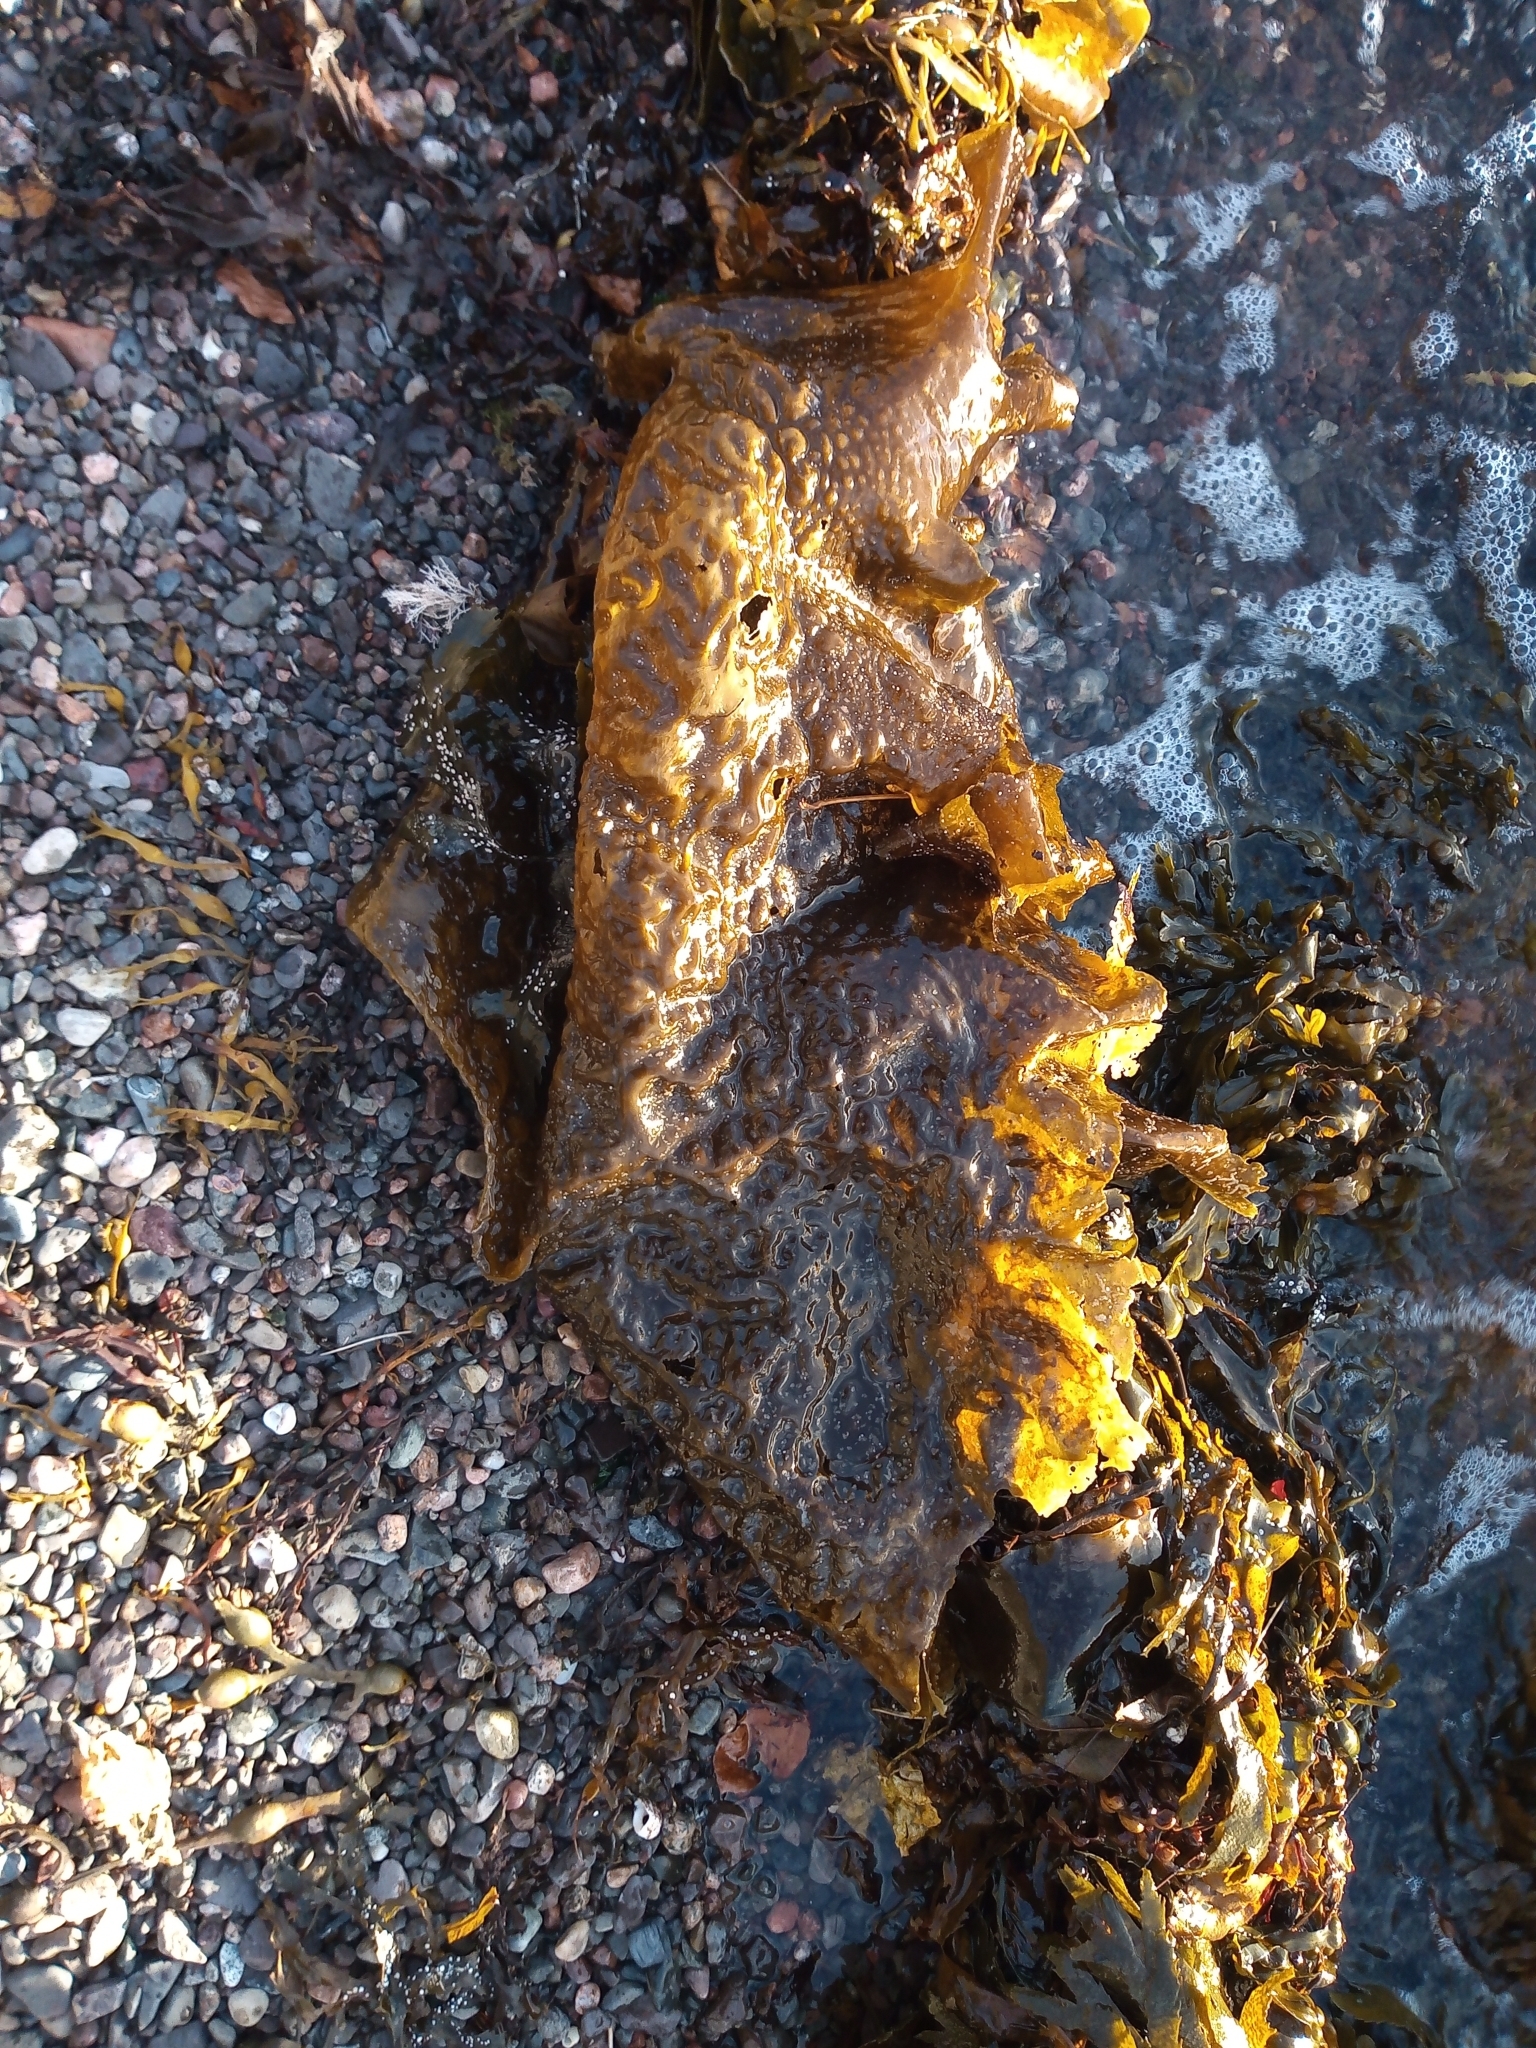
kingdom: Chromista
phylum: Ochrophyta
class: Phaeophyceae
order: Laminariales
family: Laminariaceae
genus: Saccharina
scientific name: Saccharina latissima
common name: Poor man's weather glass
